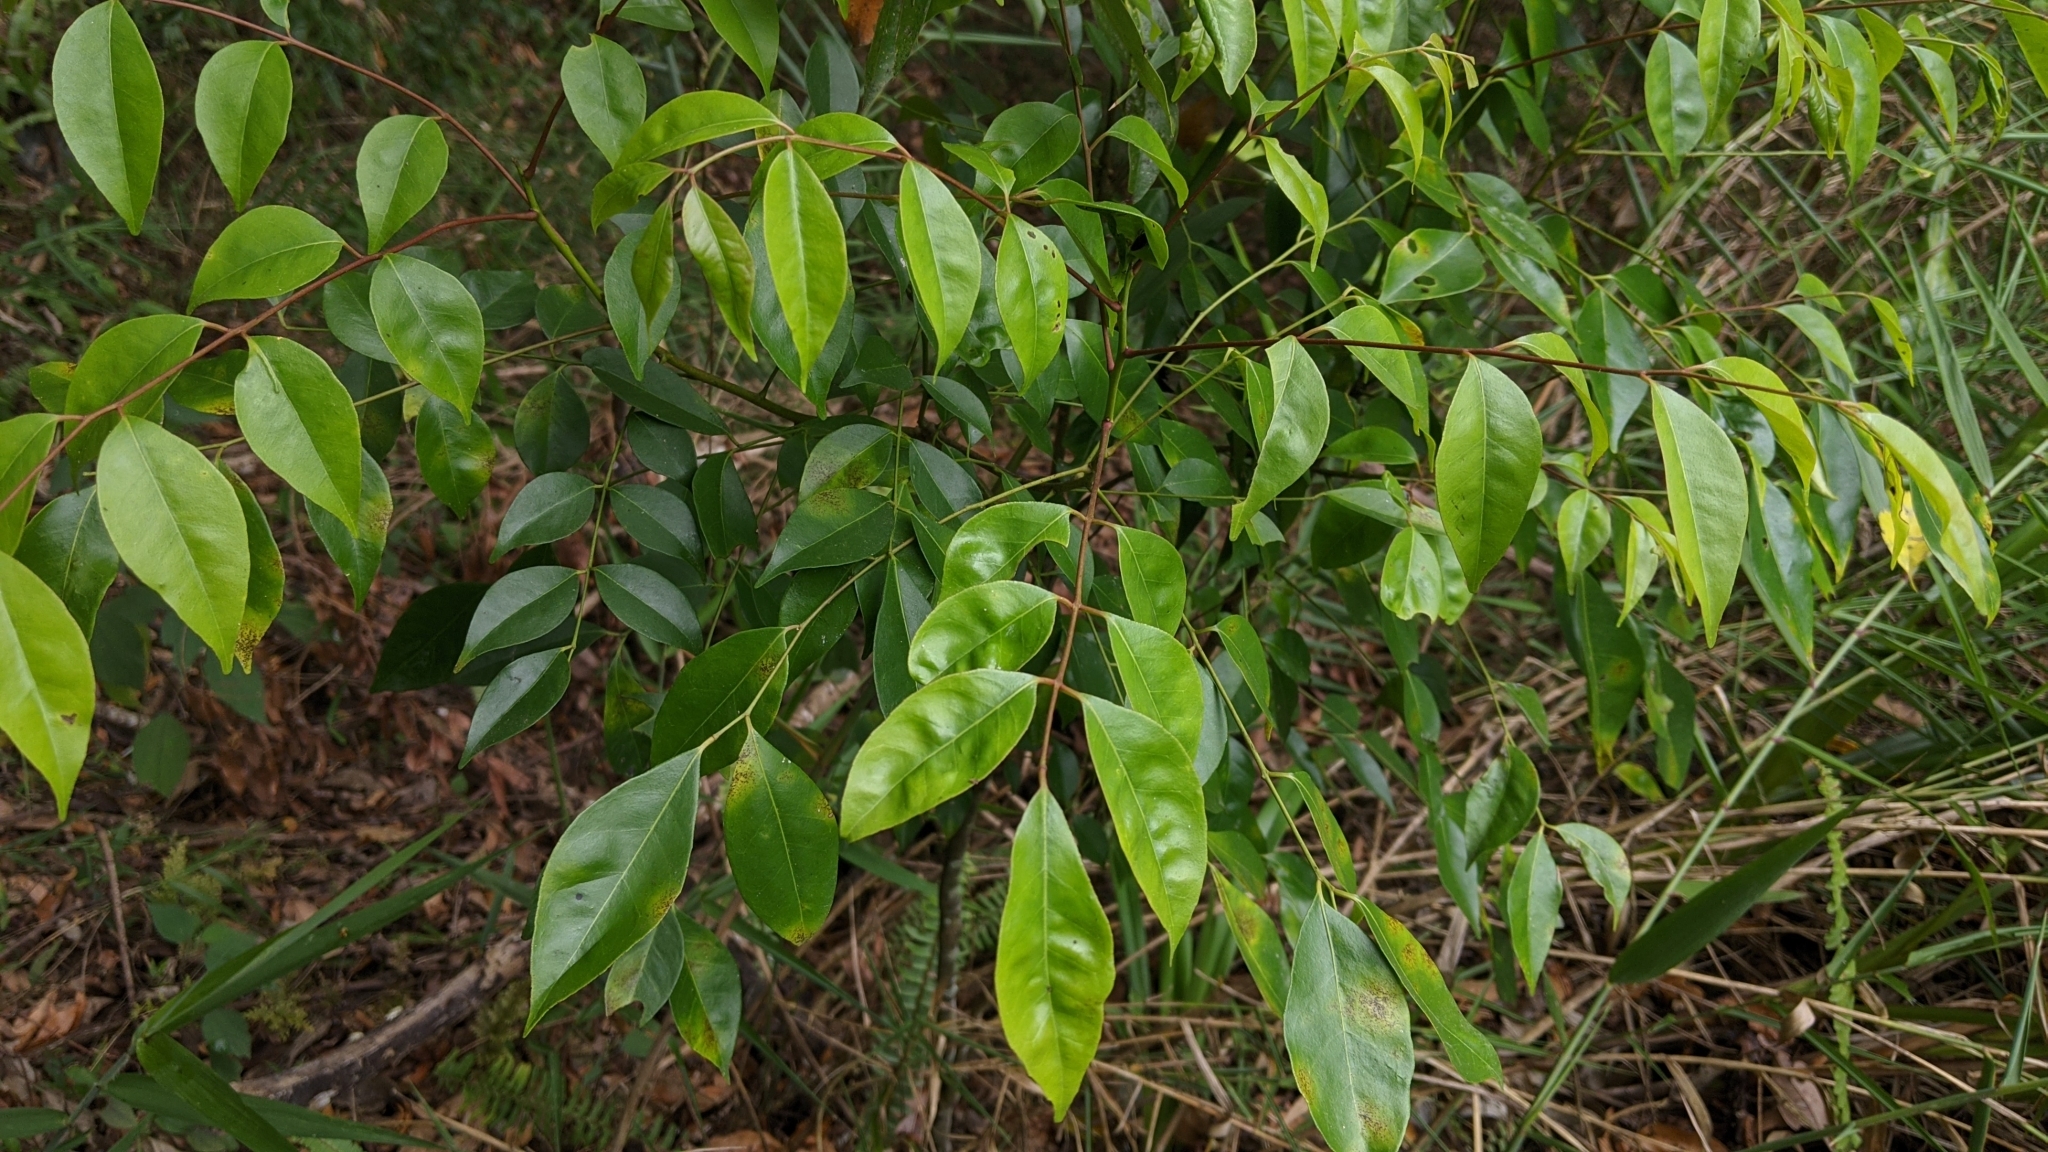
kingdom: Plantae
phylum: Tracheophyta
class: Magnoliopsida
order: Sapindales
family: Rutaceae
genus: Murraya
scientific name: Murraya euchrestifolia
